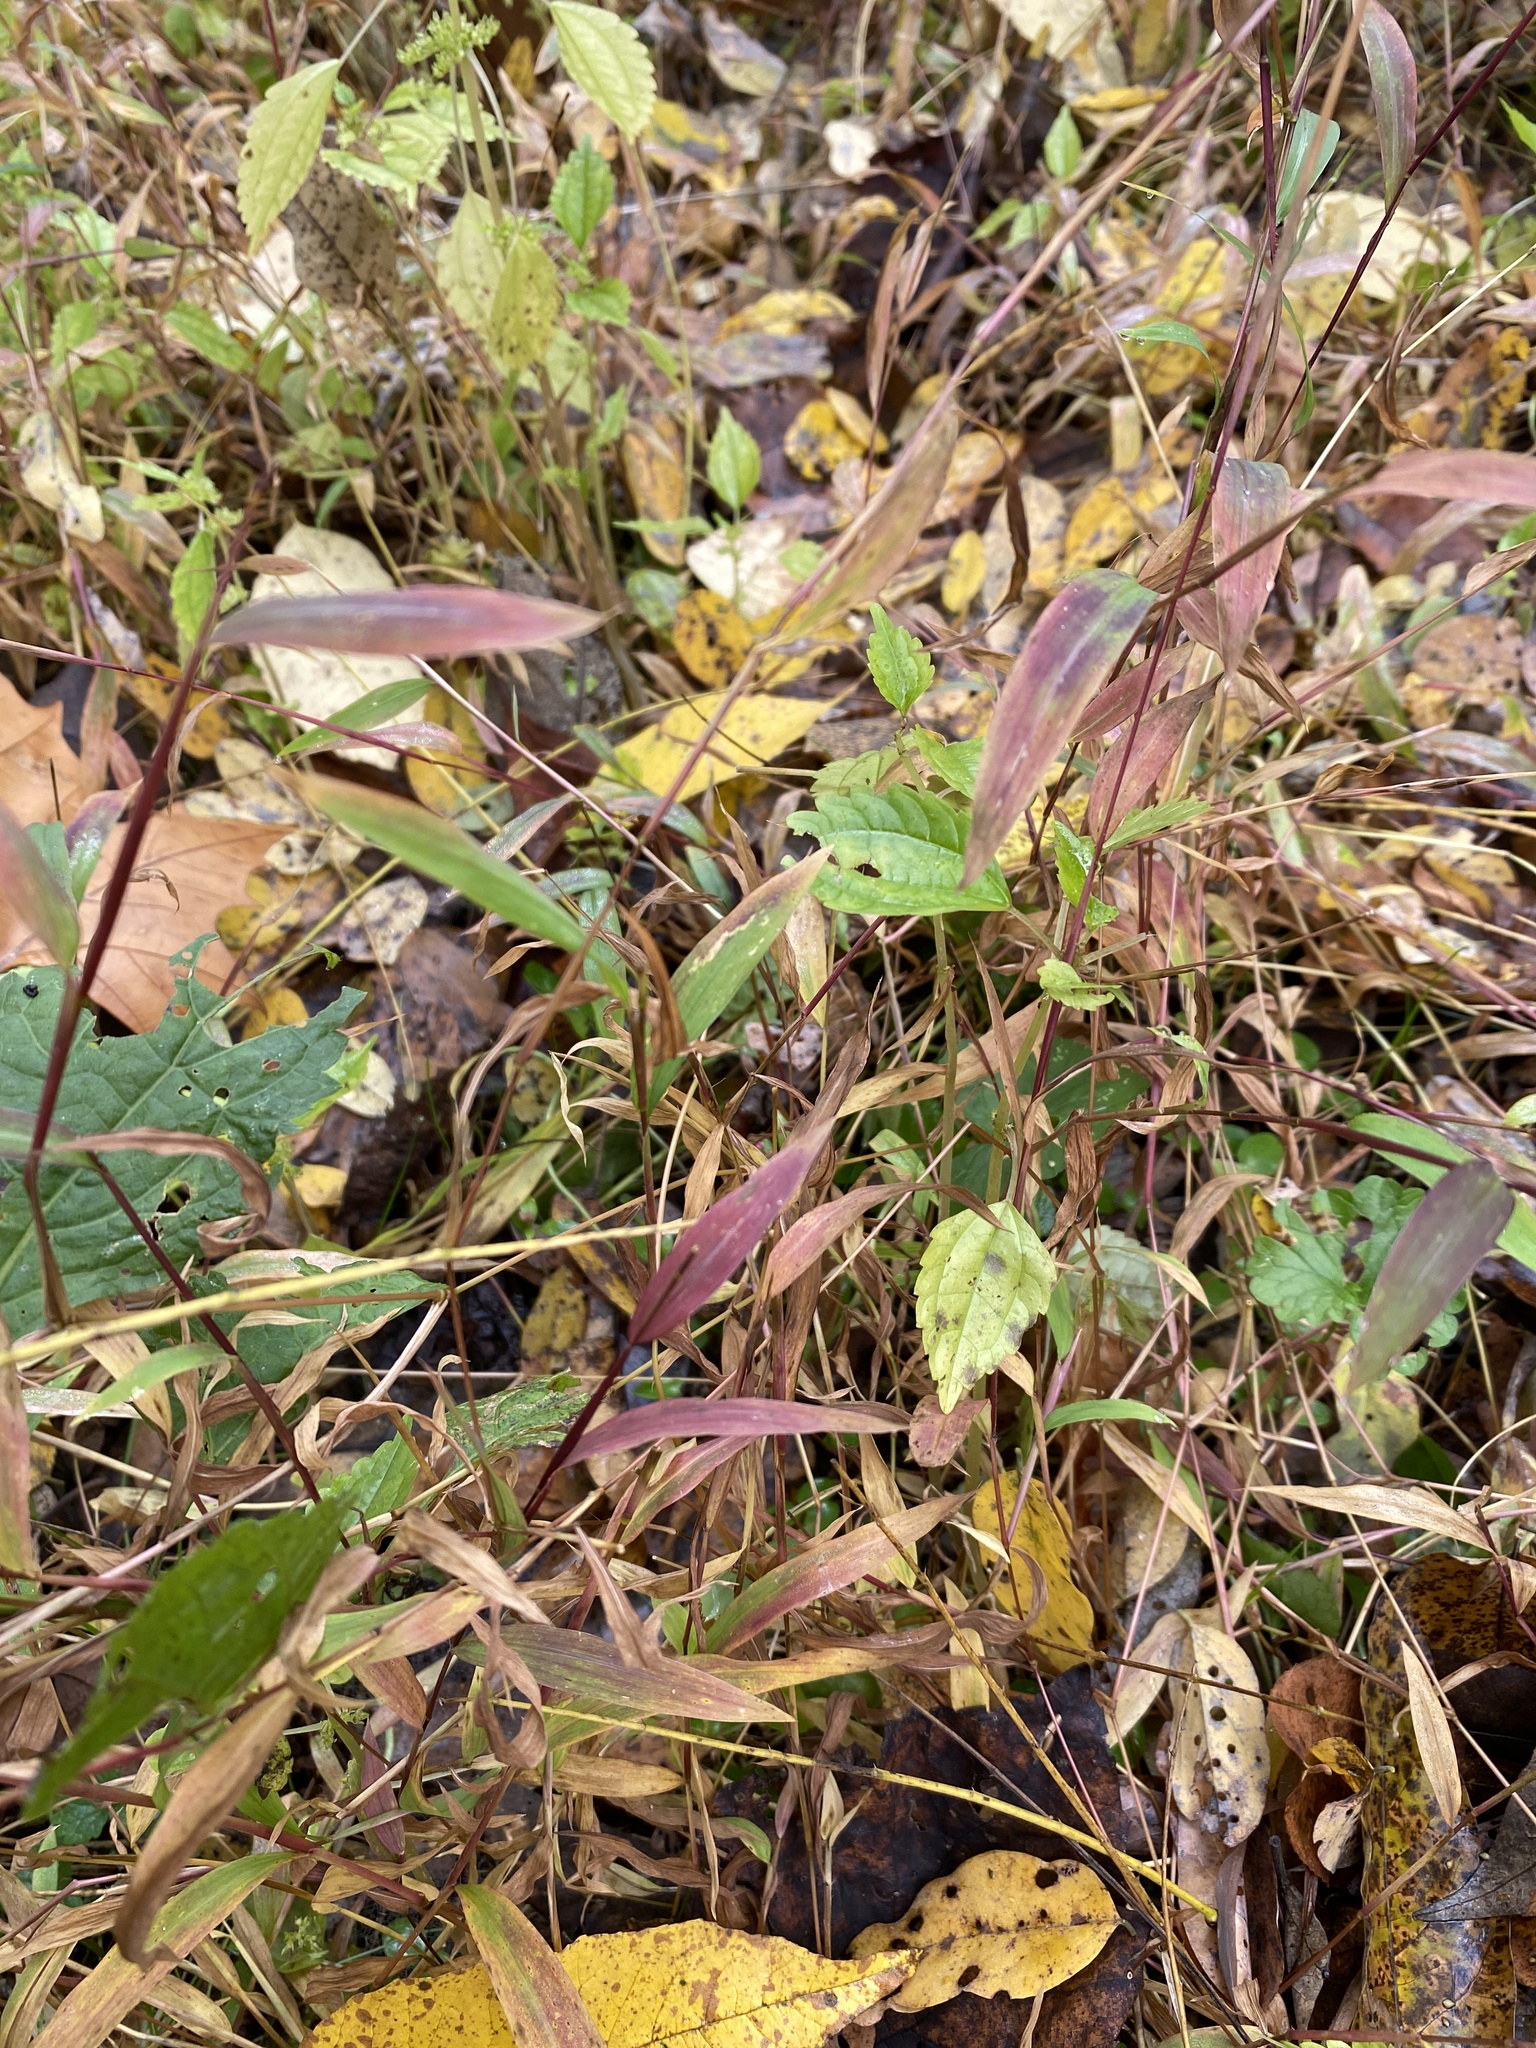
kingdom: Plantae
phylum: Tracheophyta
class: Liliopsida
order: Poales
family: Poaceae
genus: Microstegium
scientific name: Microstegium vimineum
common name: Japanese stiltgrass
